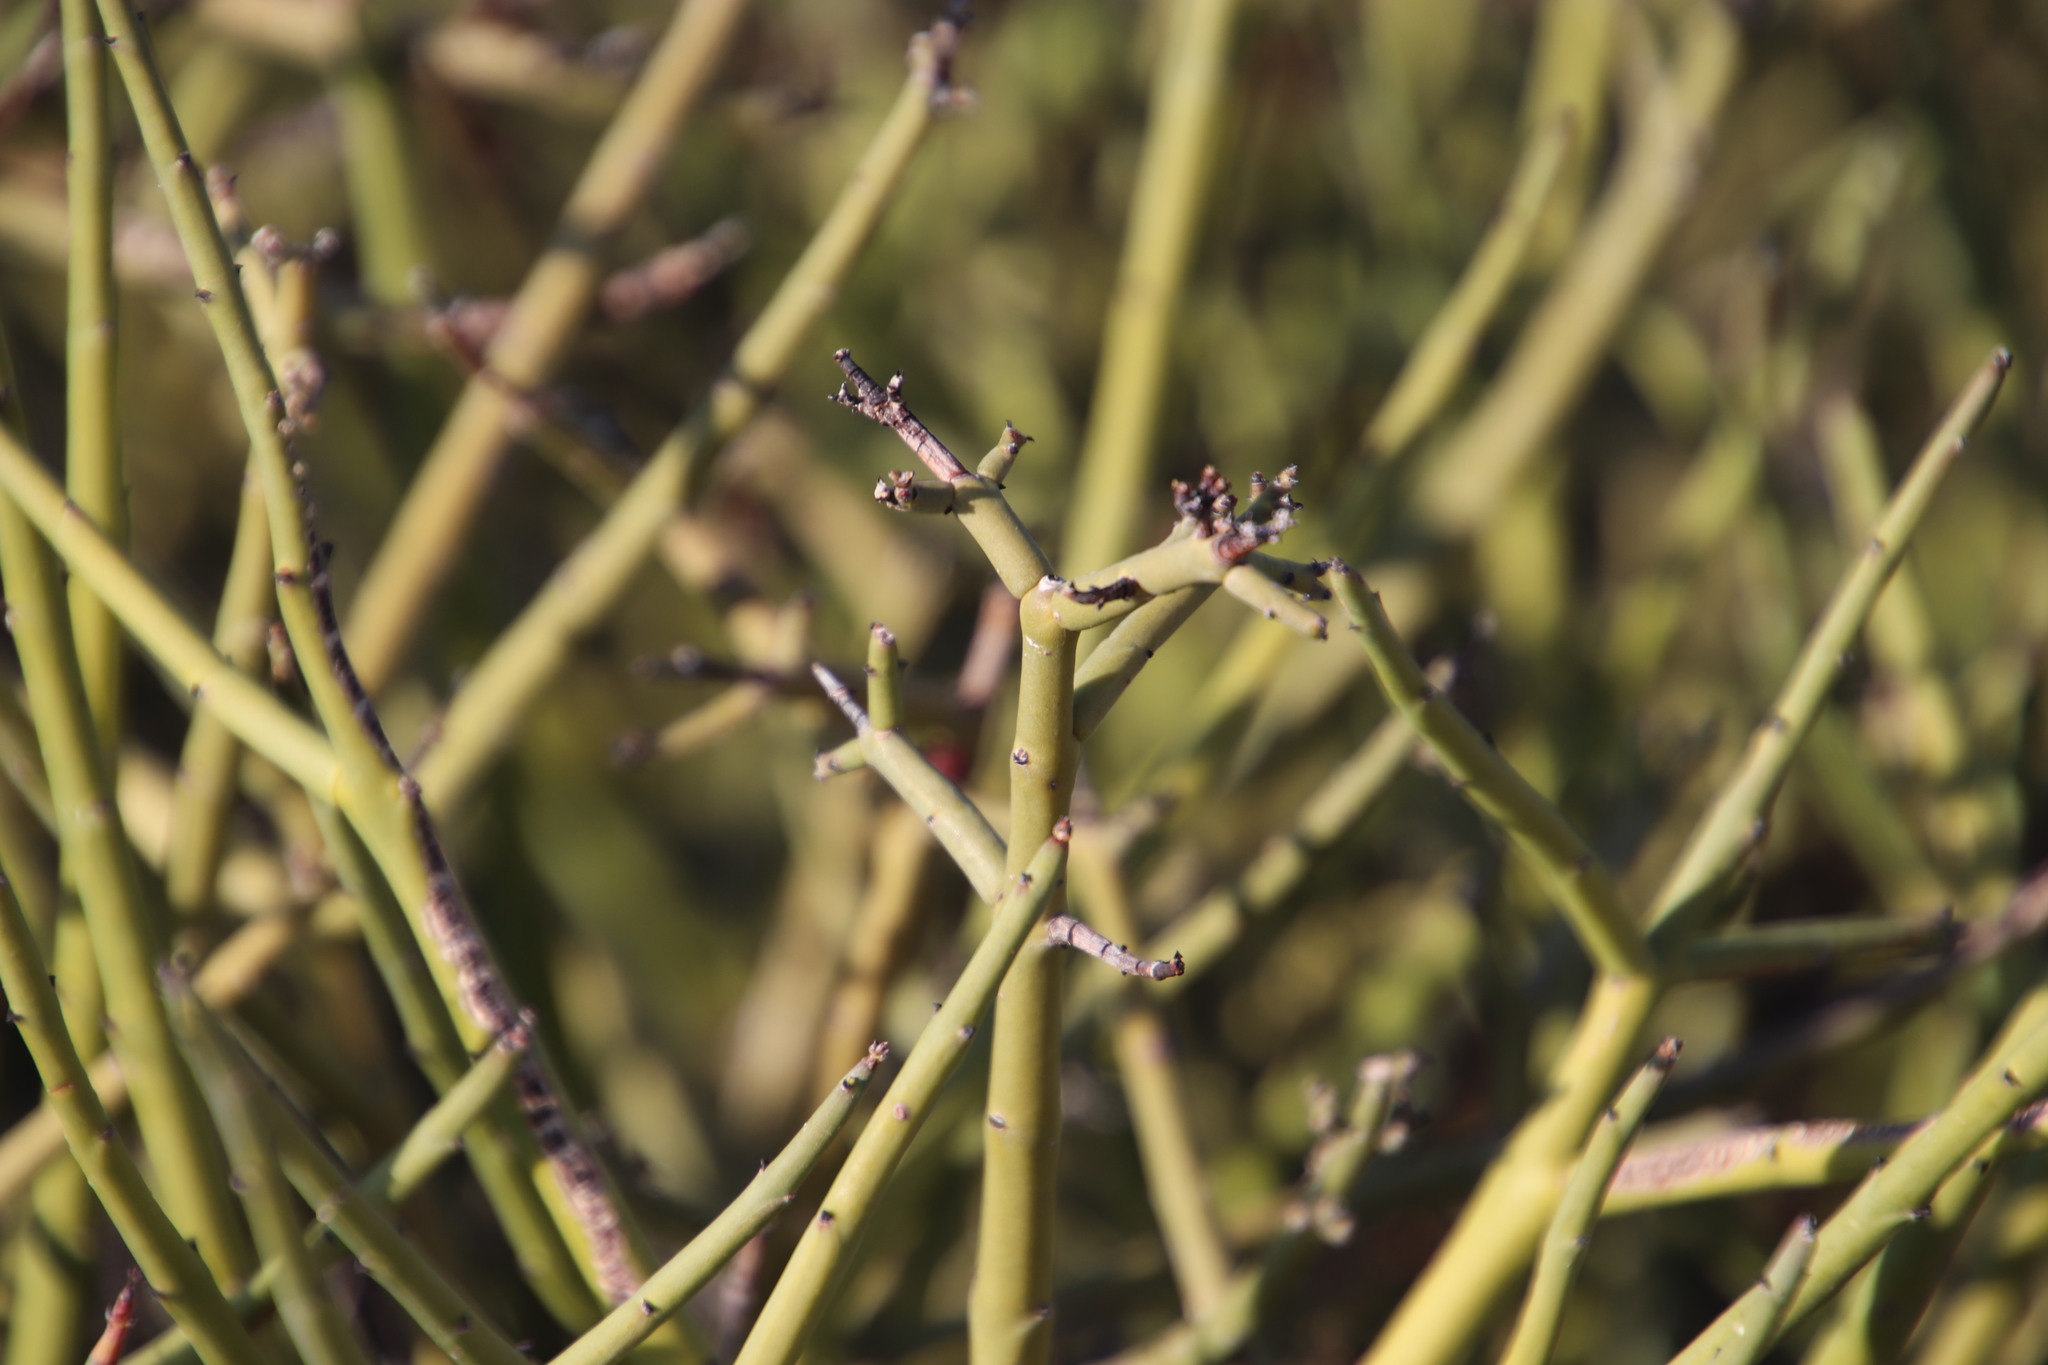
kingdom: Plantae
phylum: Tracheophyta
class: Magnoliopsida
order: Malpighiales
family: Euphorbiaceae
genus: Euphorbia
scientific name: Euphorbia rhombifolia
